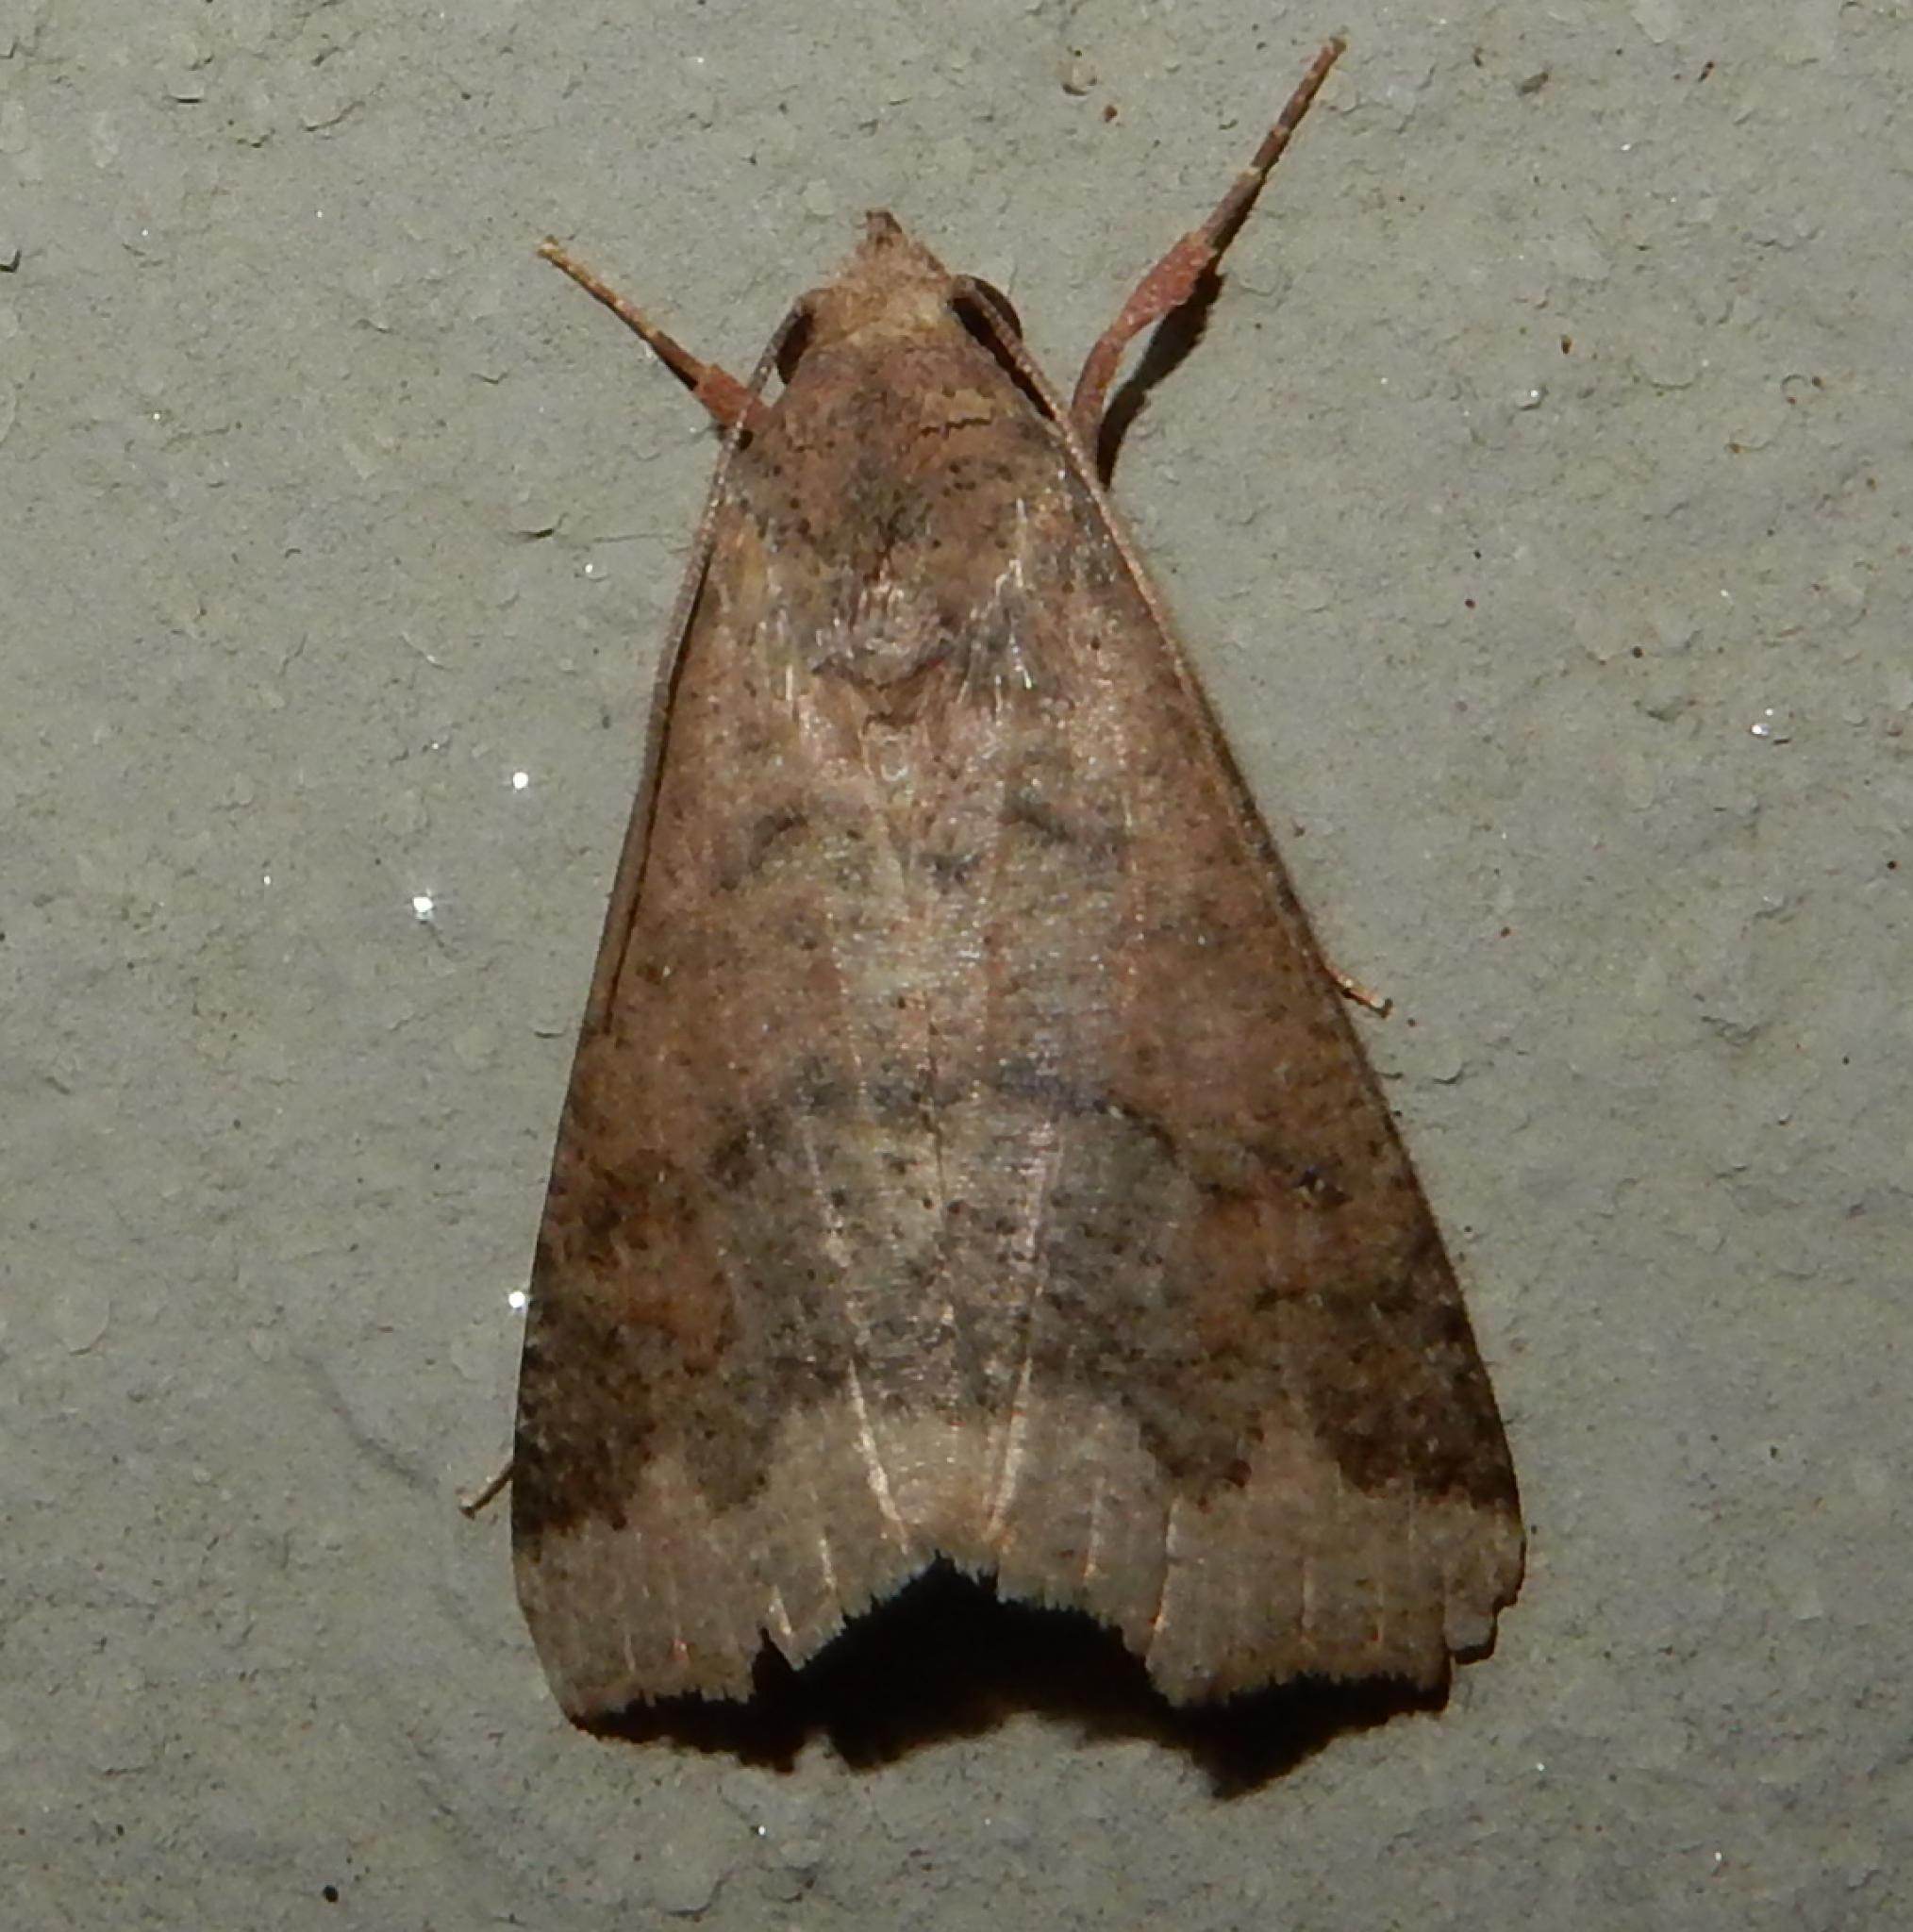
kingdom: Animalia
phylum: Arthropoda
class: Insecta
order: Lepidoptera
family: Erebidae
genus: Anomis
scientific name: Anomis sabulifera
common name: Angled gem
